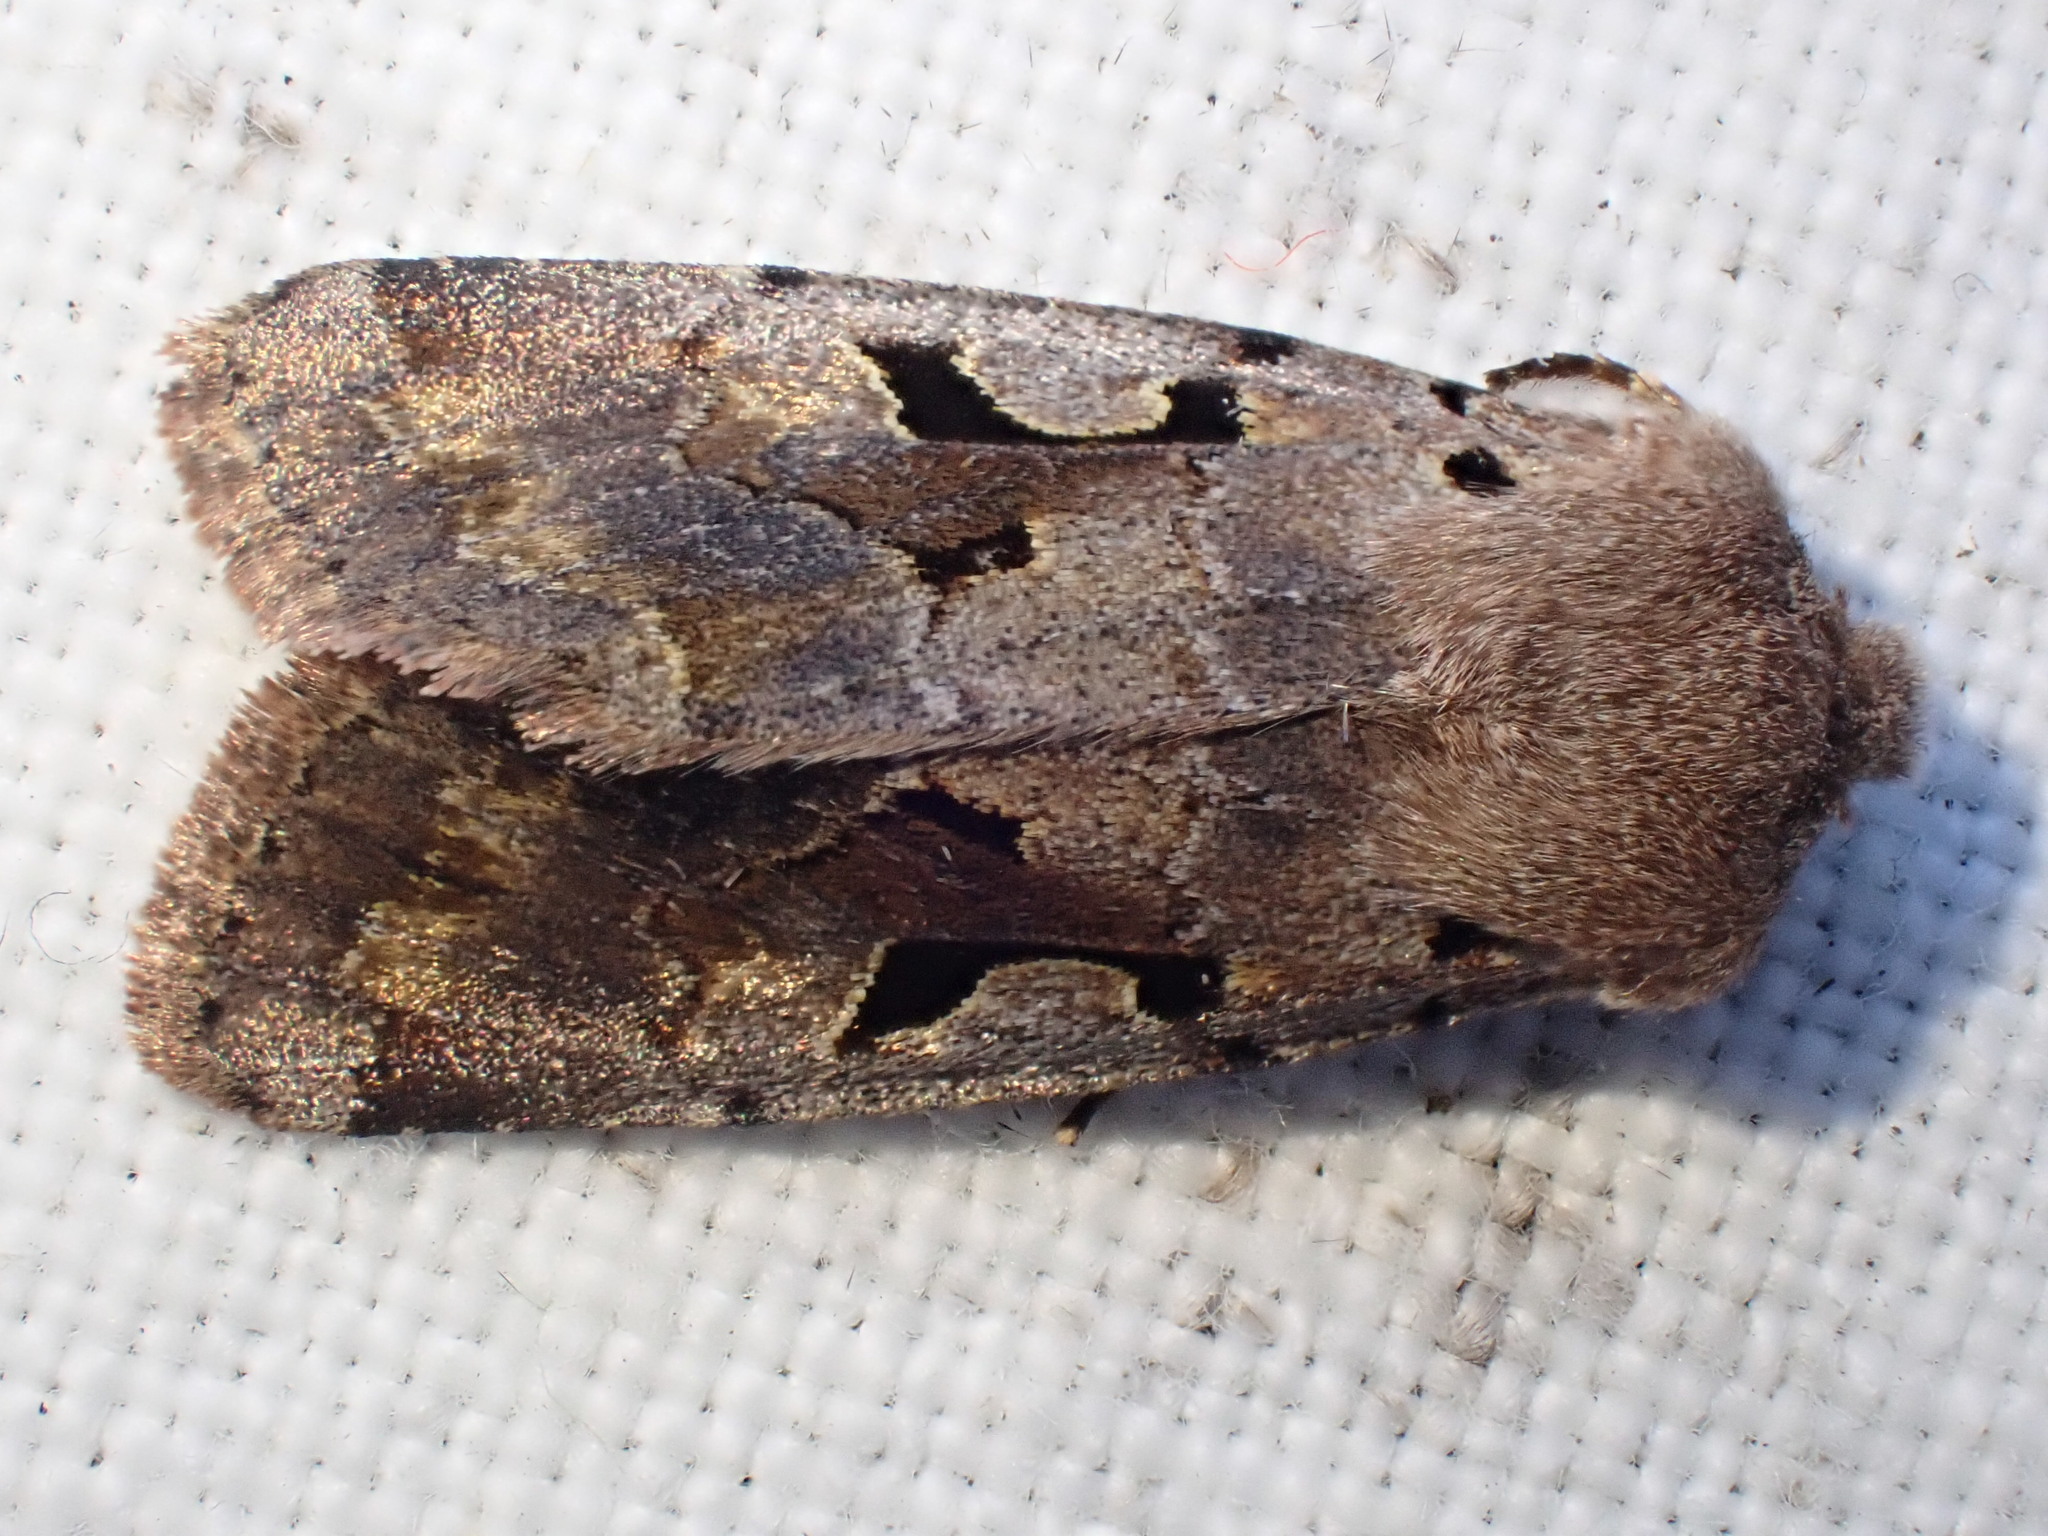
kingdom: Animalia
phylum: Arthropoda
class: Insecta
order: Lepidoptera
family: Noctuidae
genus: Orthosia
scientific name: Orthosia gothica
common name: Hebrew character
